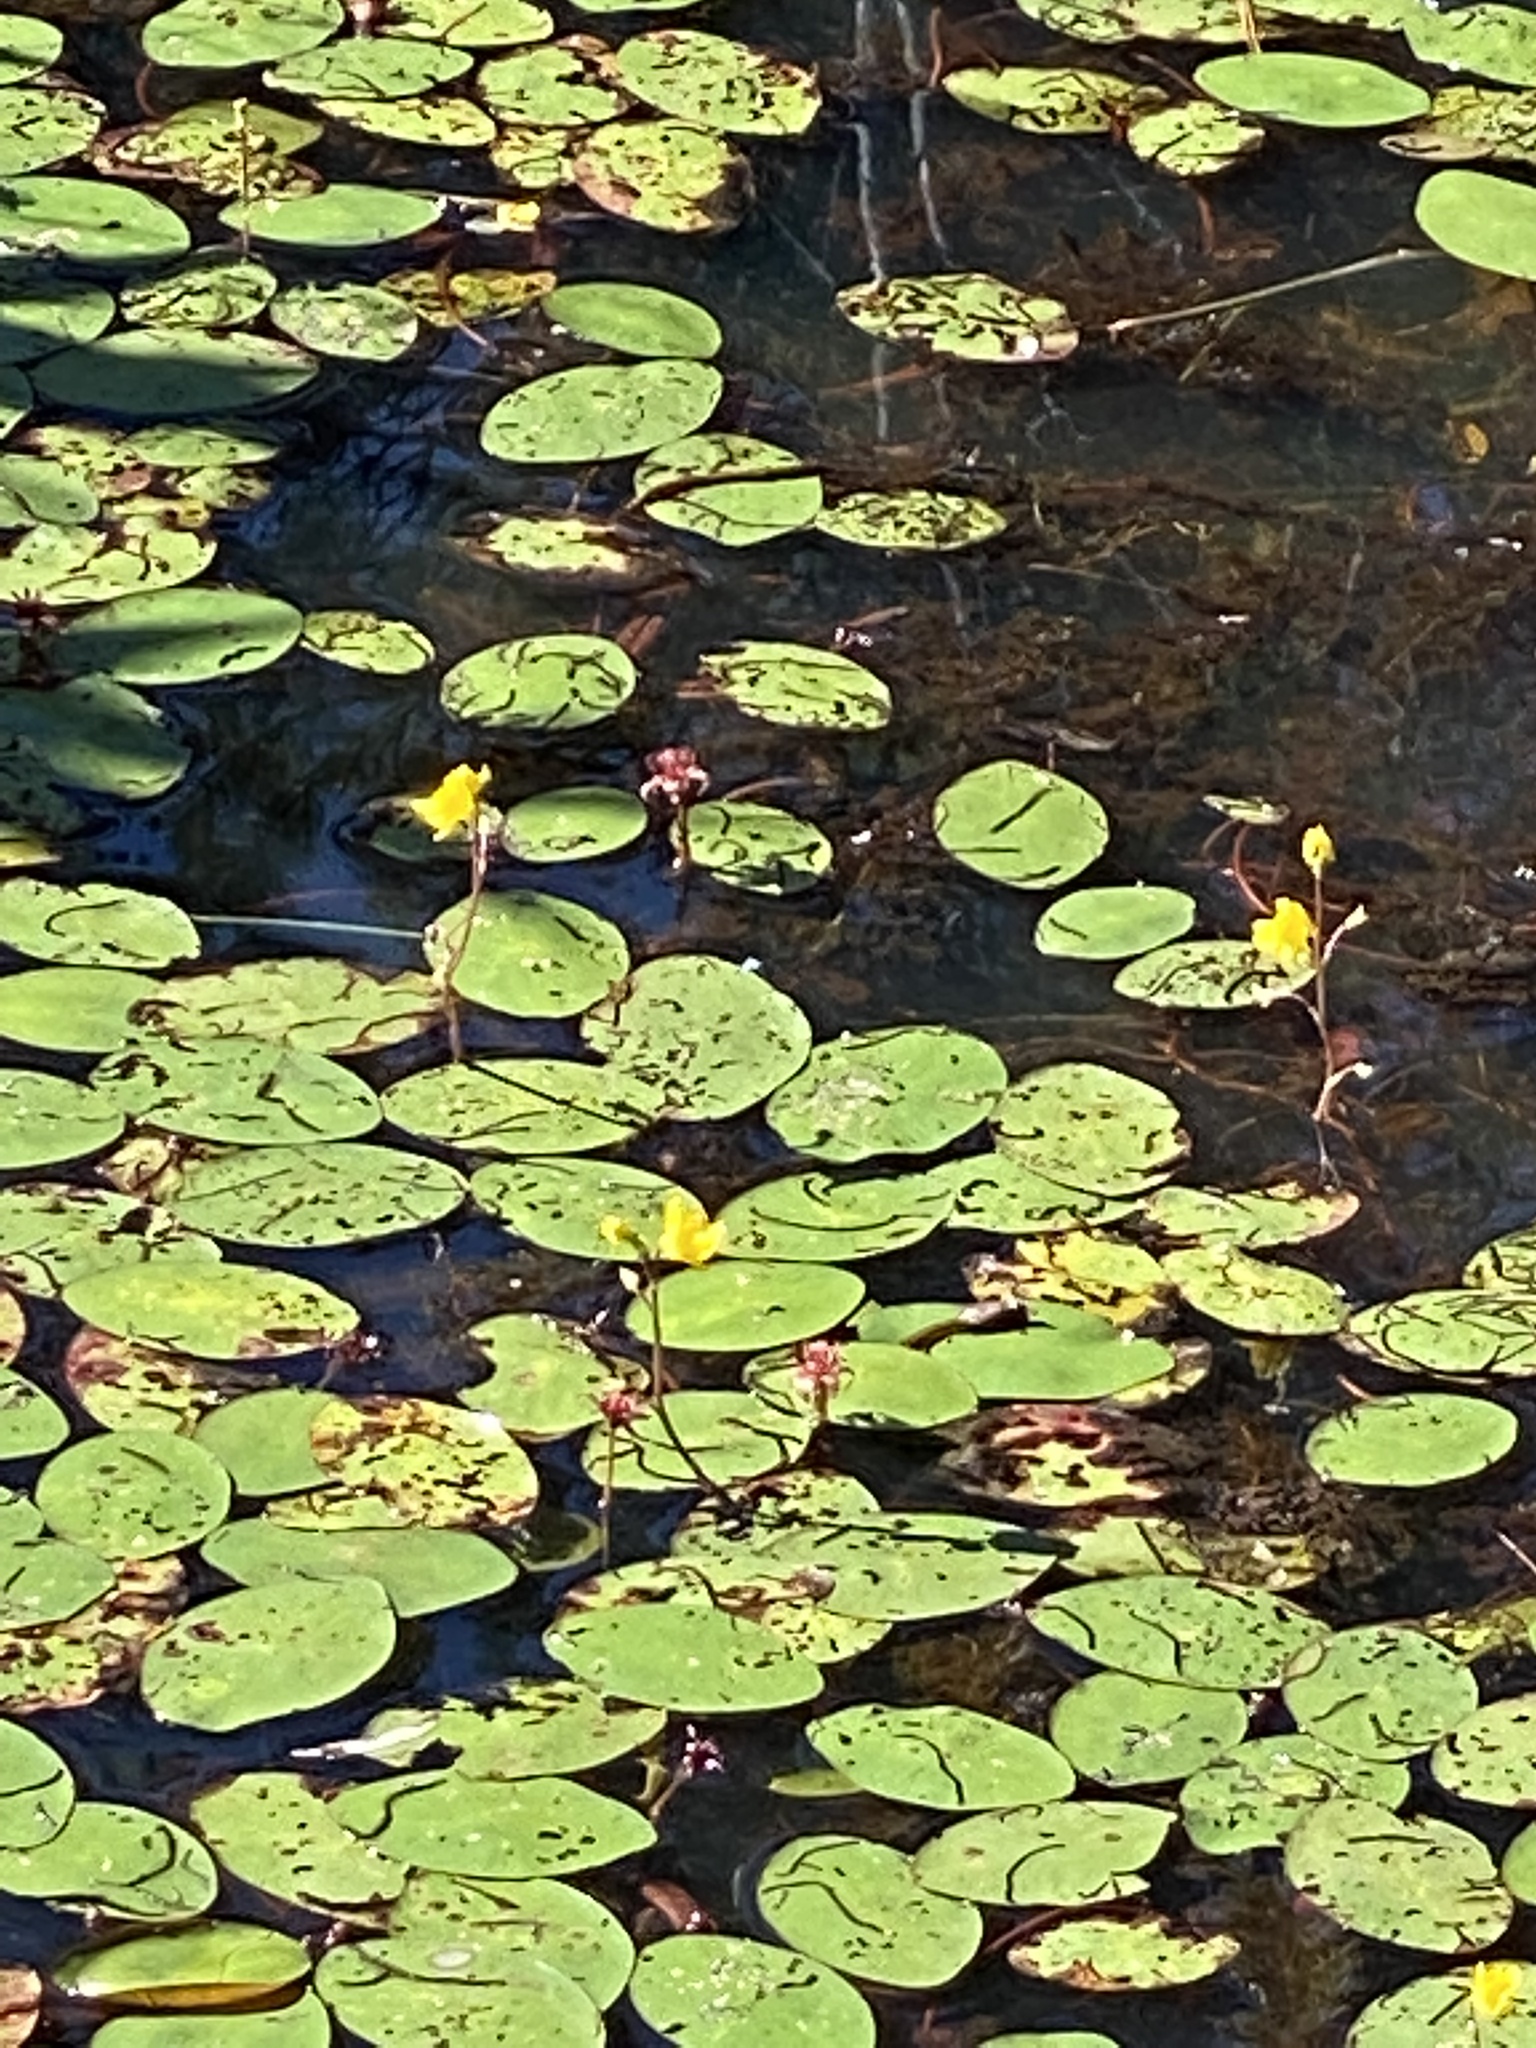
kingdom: Plantae
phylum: Tracheophyta
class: Magnoliopsida
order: Nymphaeales
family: Cabombaceae
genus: Brasenia
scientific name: Brasenia schreberi
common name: Water-shield
